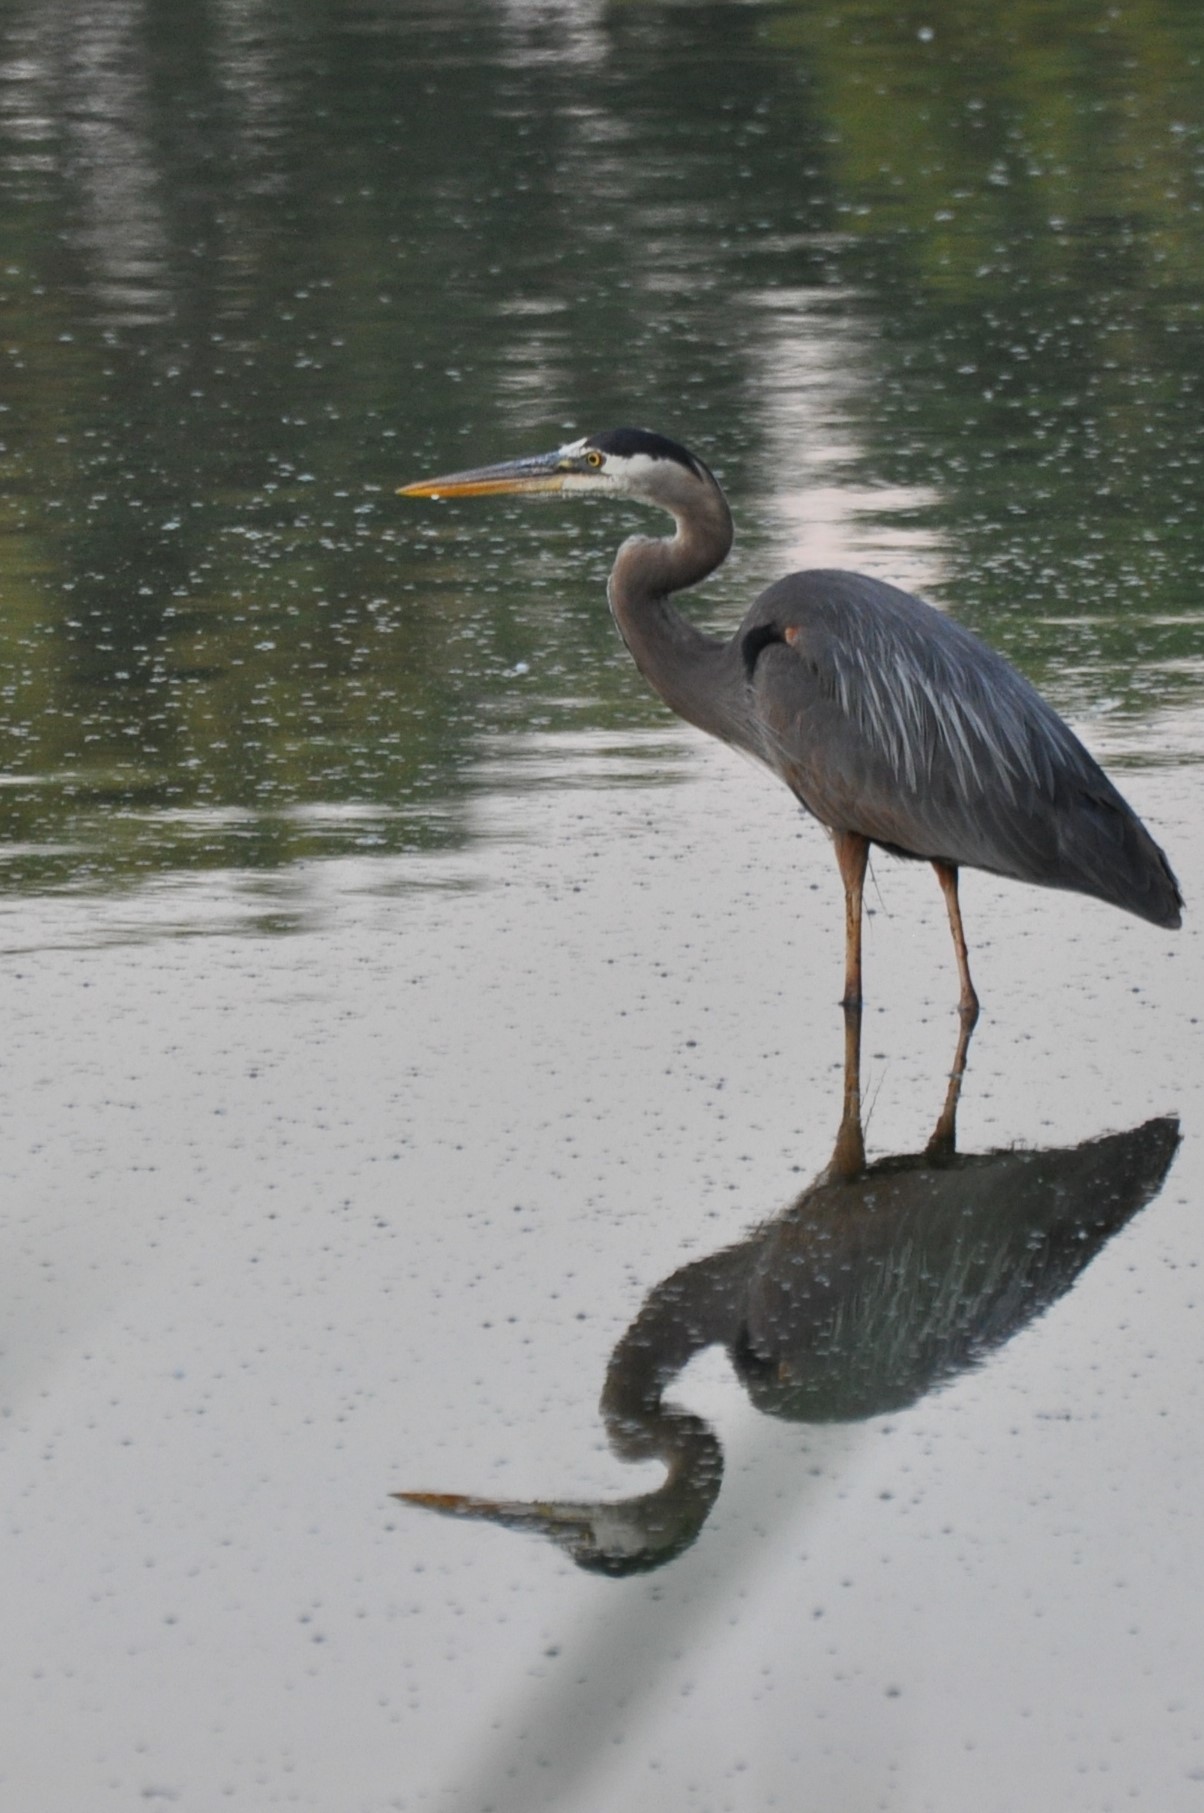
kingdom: Animalia
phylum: Chordata
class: Aves
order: Pelecaniformes
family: Ardeidae
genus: Ardea
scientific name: Ardea herodias
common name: Great blue heron
